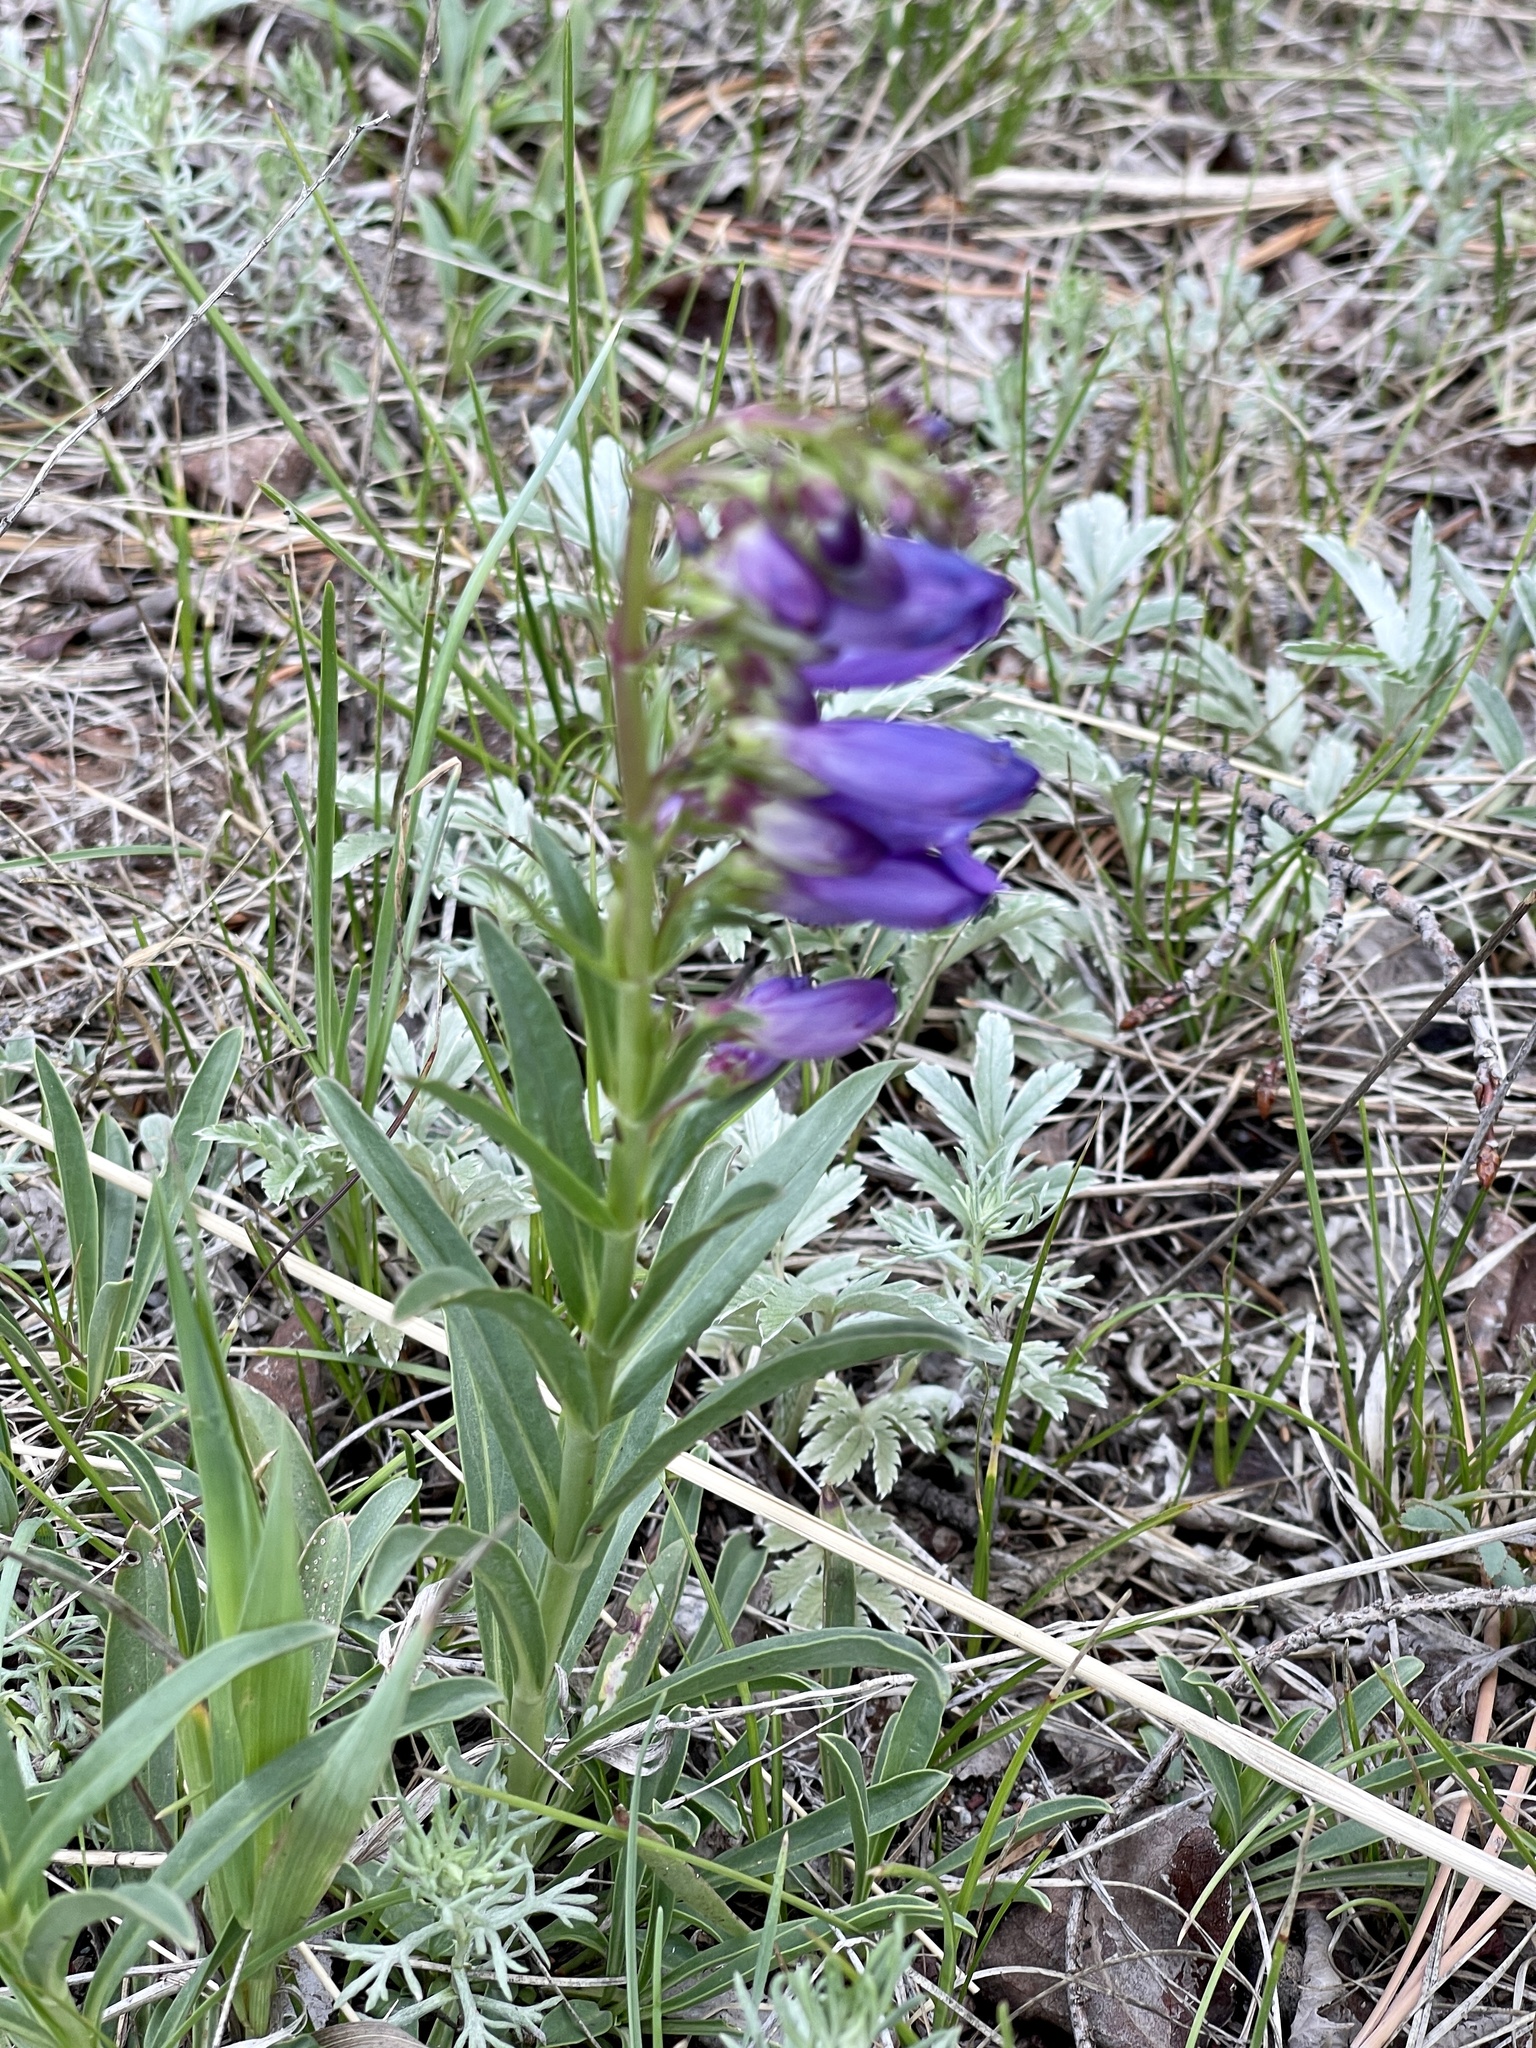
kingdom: Plantae
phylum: Tracheophyta
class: Magnoliopsida
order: Lamiales
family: Plantaginaceae
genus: Penstemon
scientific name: Penstemon strictus
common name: Rocky mountain penstemon
